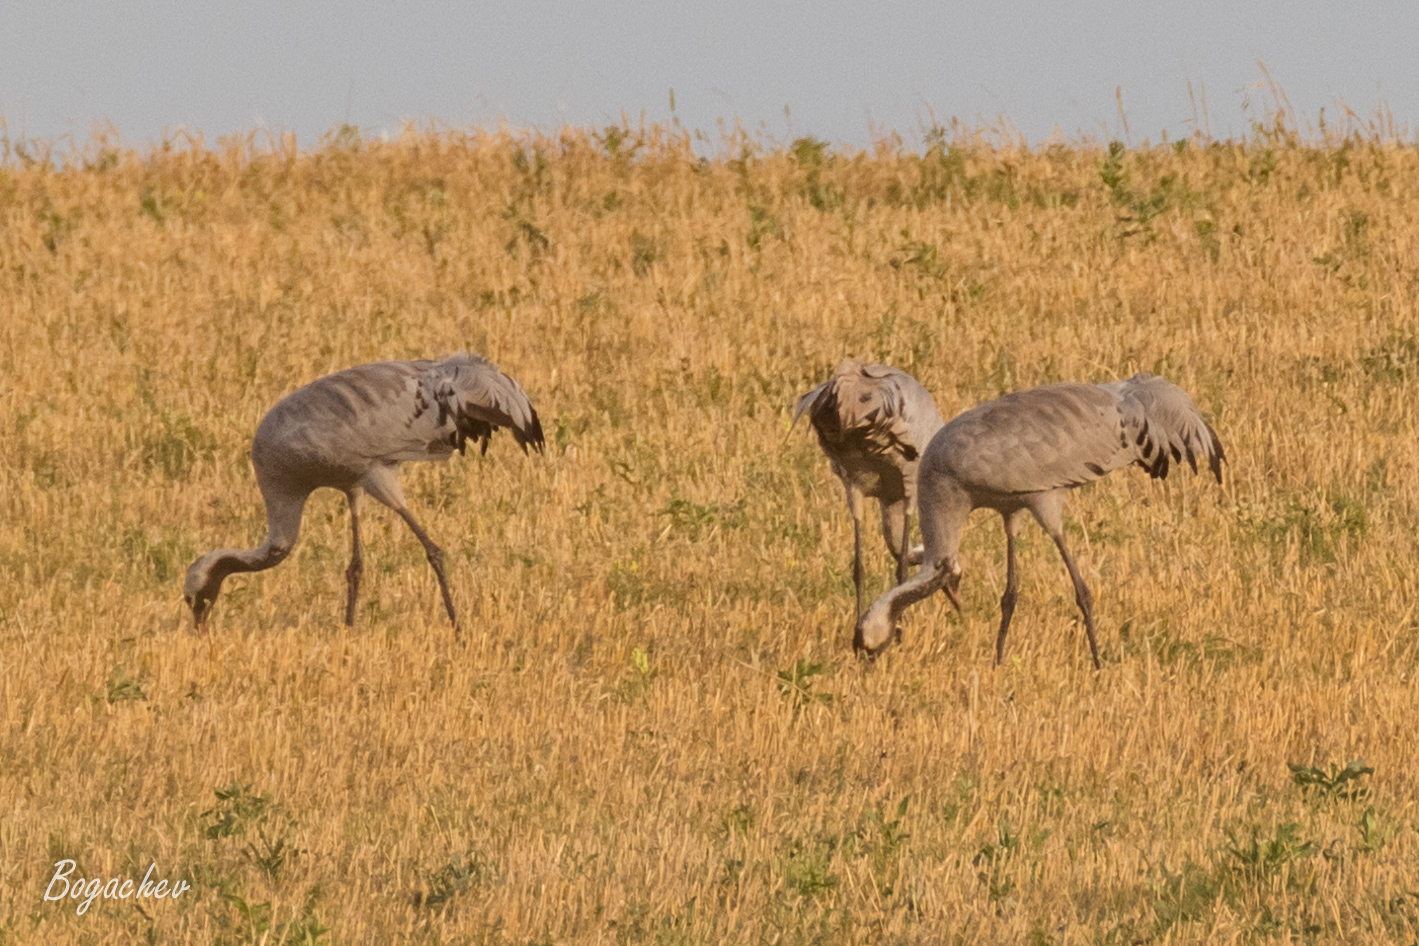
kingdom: Animalia
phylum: Chordata
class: Aves
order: Gruiformes
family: Gruidae
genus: Grus
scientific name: Grus grus
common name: Common crane
